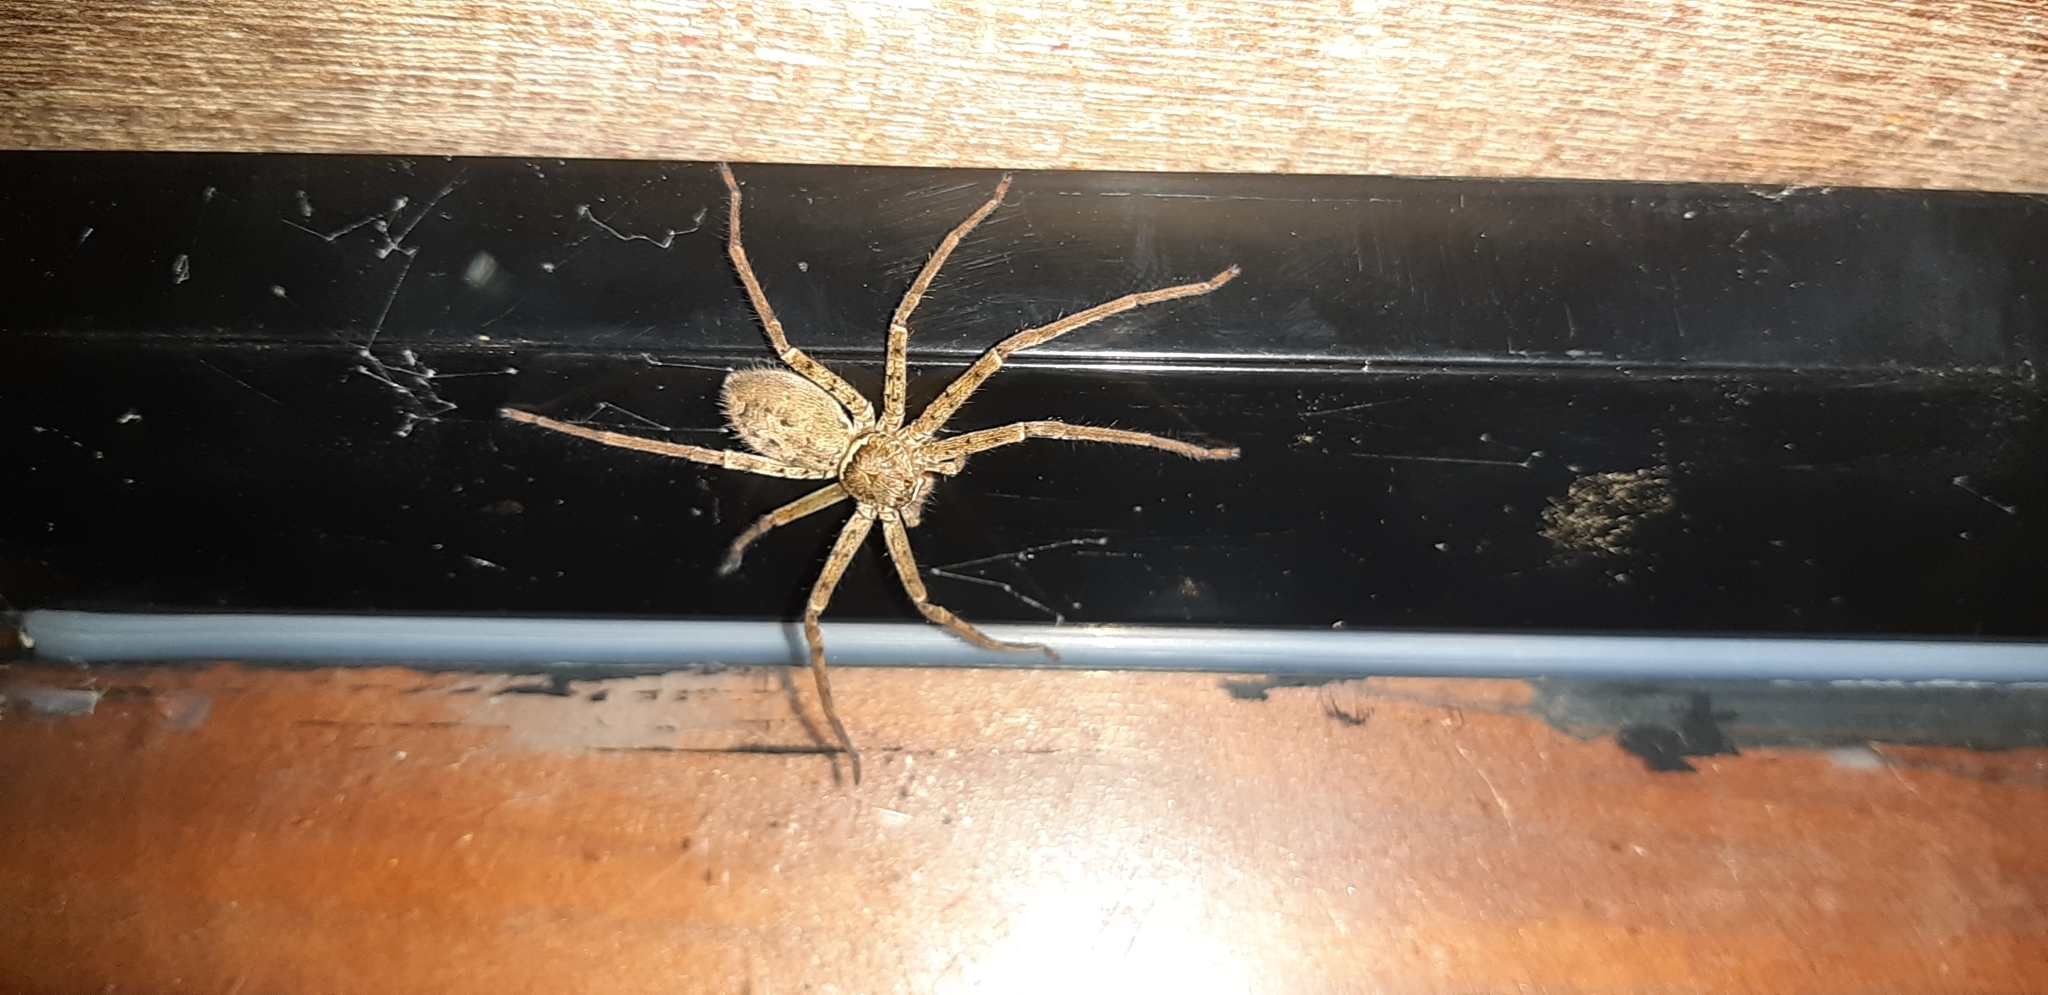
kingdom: Animalia
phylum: Arthropoda
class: Arachnida
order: Araneae
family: Sparassidae
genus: Heteropoda
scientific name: Heteropoda venatoria
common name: Huntsman spider
